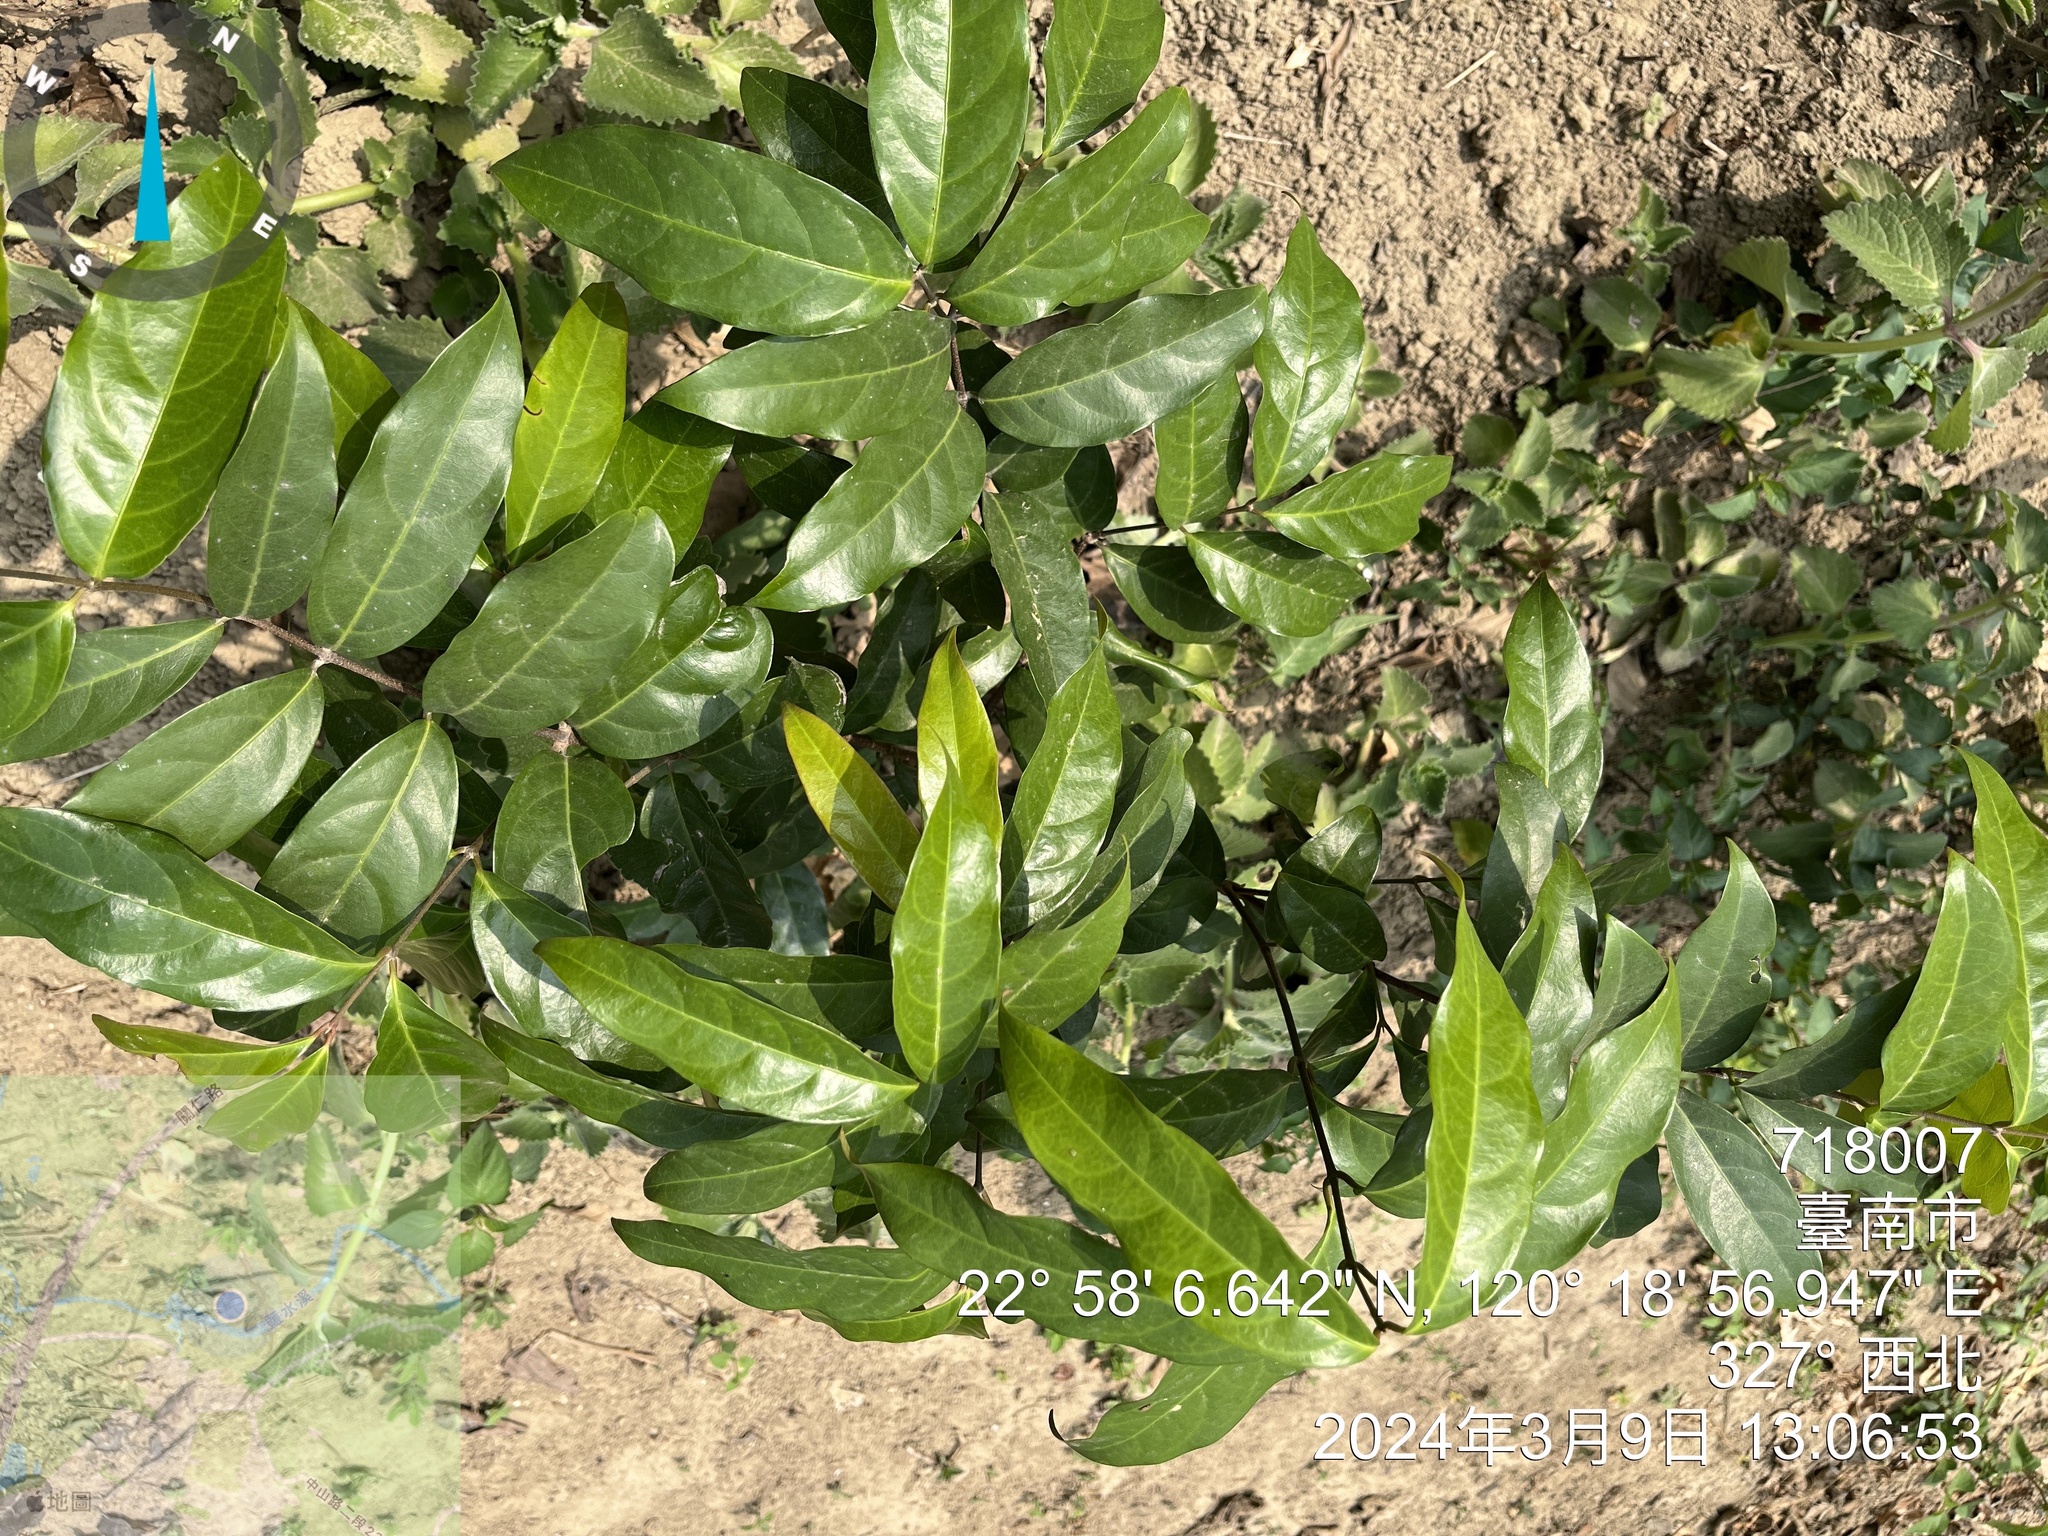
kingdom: Plantae
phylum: Tracheophyta
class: Magnoliopsida
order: Malpighiales
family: Malpighiaceae
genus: Hiptage
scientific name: Hiptage benghalensis
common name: Hiptage
